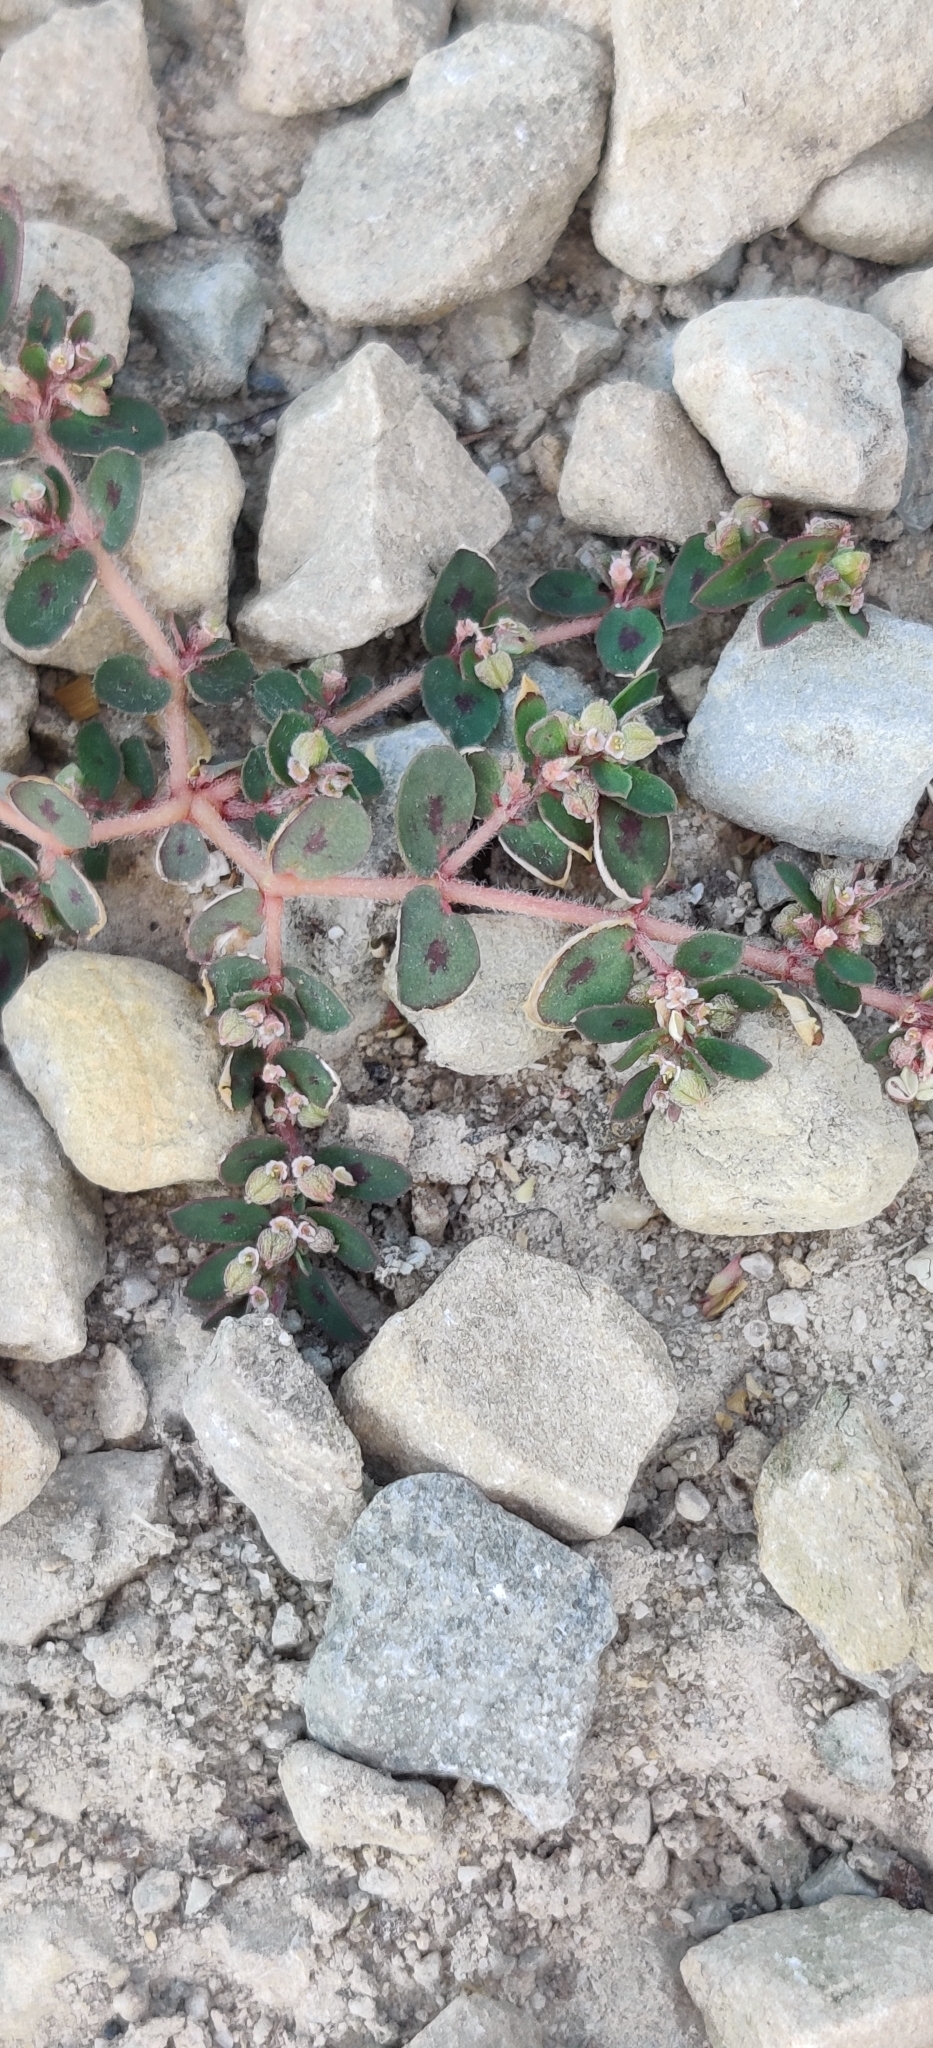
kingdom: Plantae
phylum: Tracheophyta
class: Magnoliopsida
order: Malpighiales
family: Euphorbiaceae
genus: Euphorbia
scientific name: Euphorbia maculata
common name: Spotted spurge
